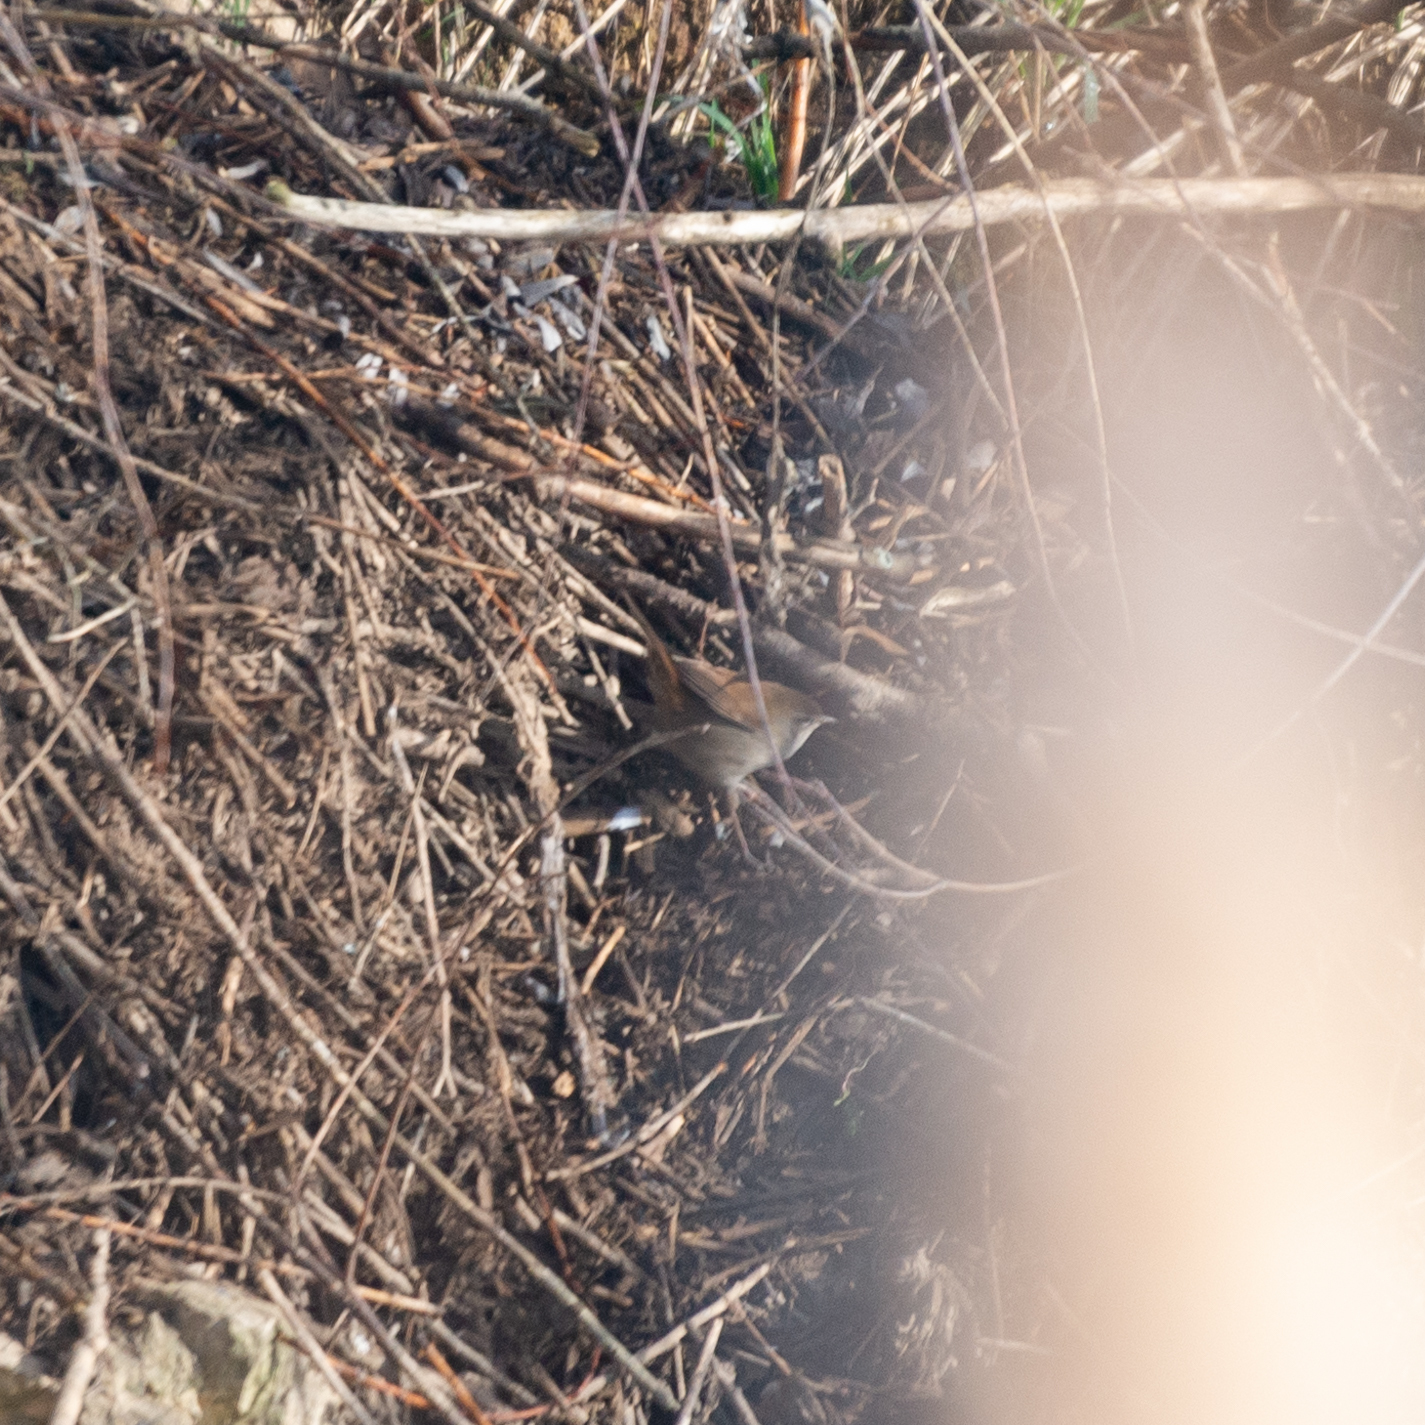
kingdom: Animalia
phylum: Chordata
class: Aves
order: Passeriformes
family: Cettiidae
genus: Cettia
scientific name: Cettia cetti
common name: Cetti's warbler
